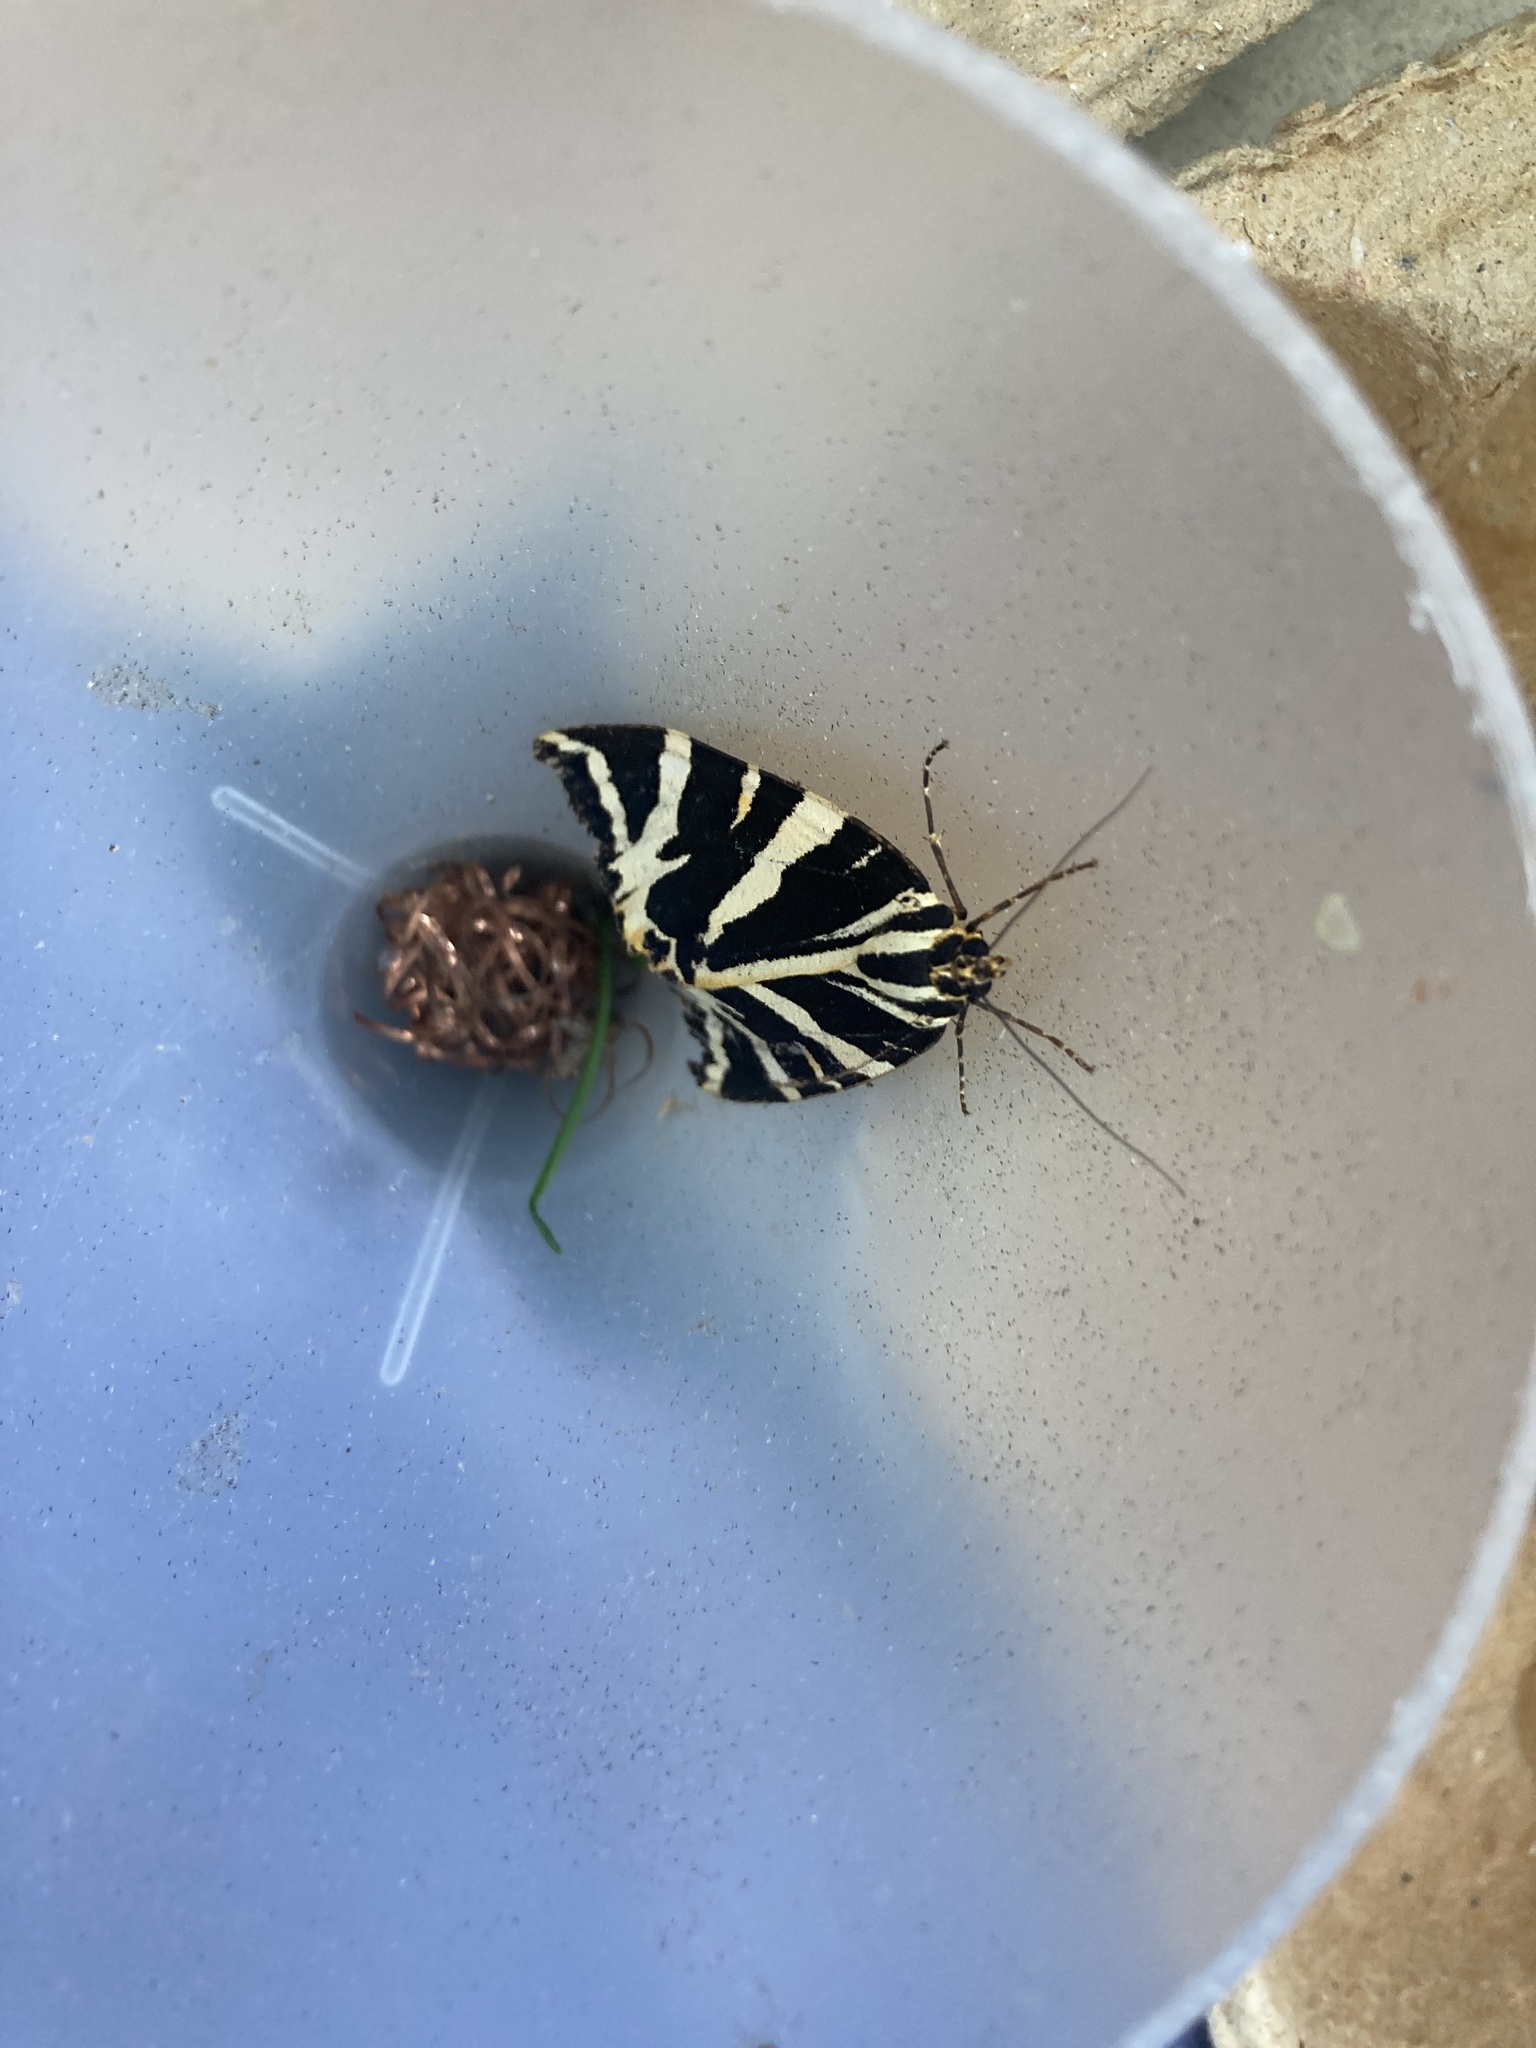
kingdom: Animalia
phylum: Arthropoda
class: Insecta
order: Lepidoptera
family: Erebidae
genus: Euplagia
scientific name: Euplagia quadripunctaria
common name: Jersey tiger
